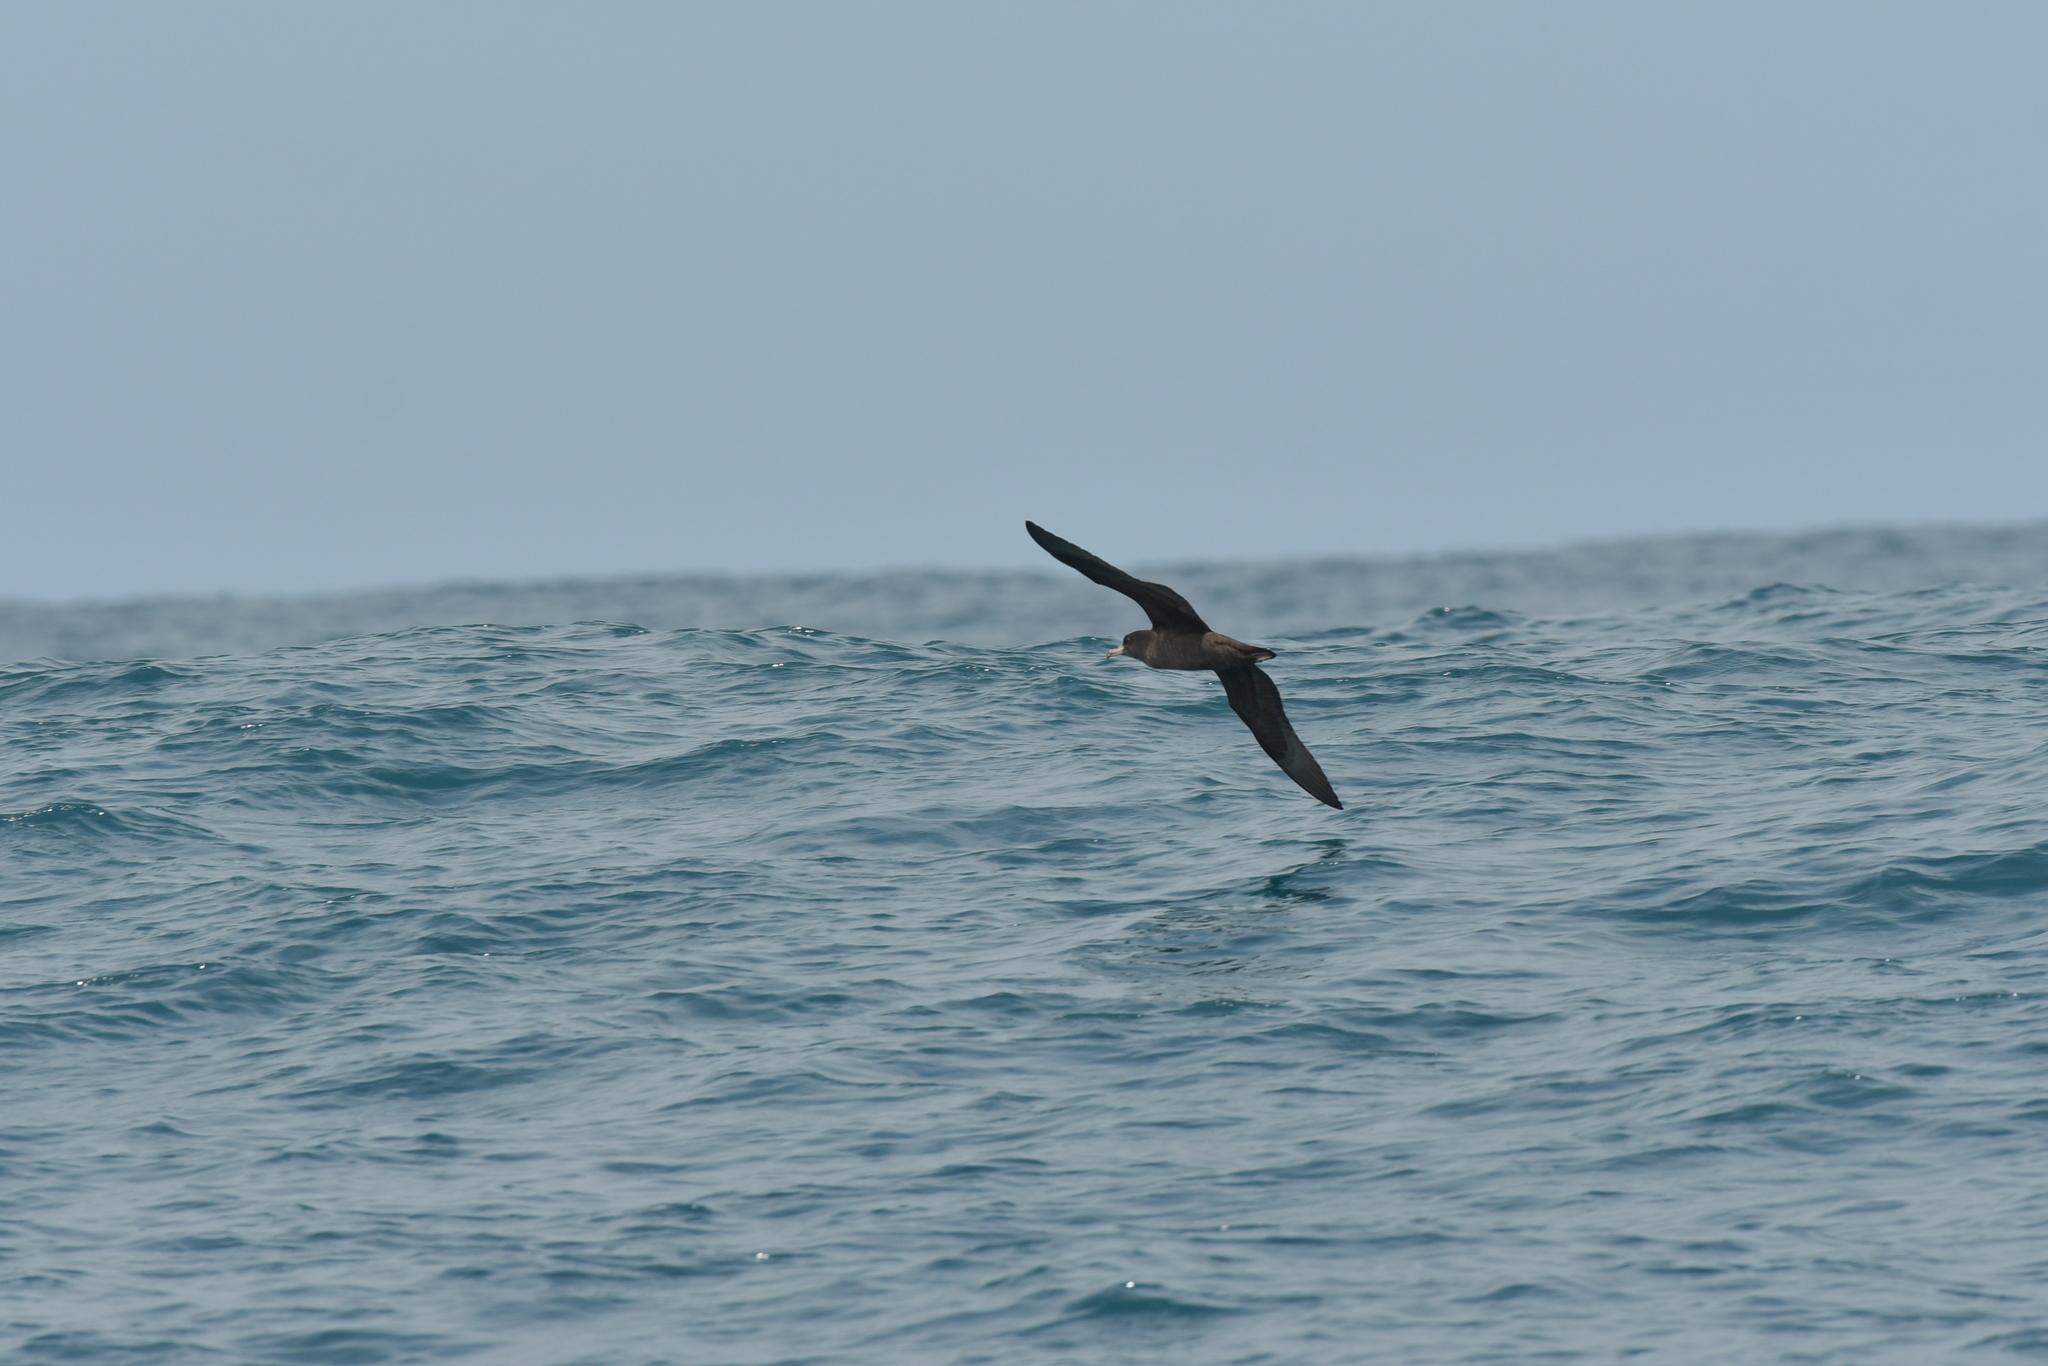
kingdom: Animalia
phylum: Chordata
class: Aves
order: Procellariiformes
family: Procellariidae
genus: Puffinus
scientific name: Puffinus carneipes
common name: Flesh-footed shearwater
